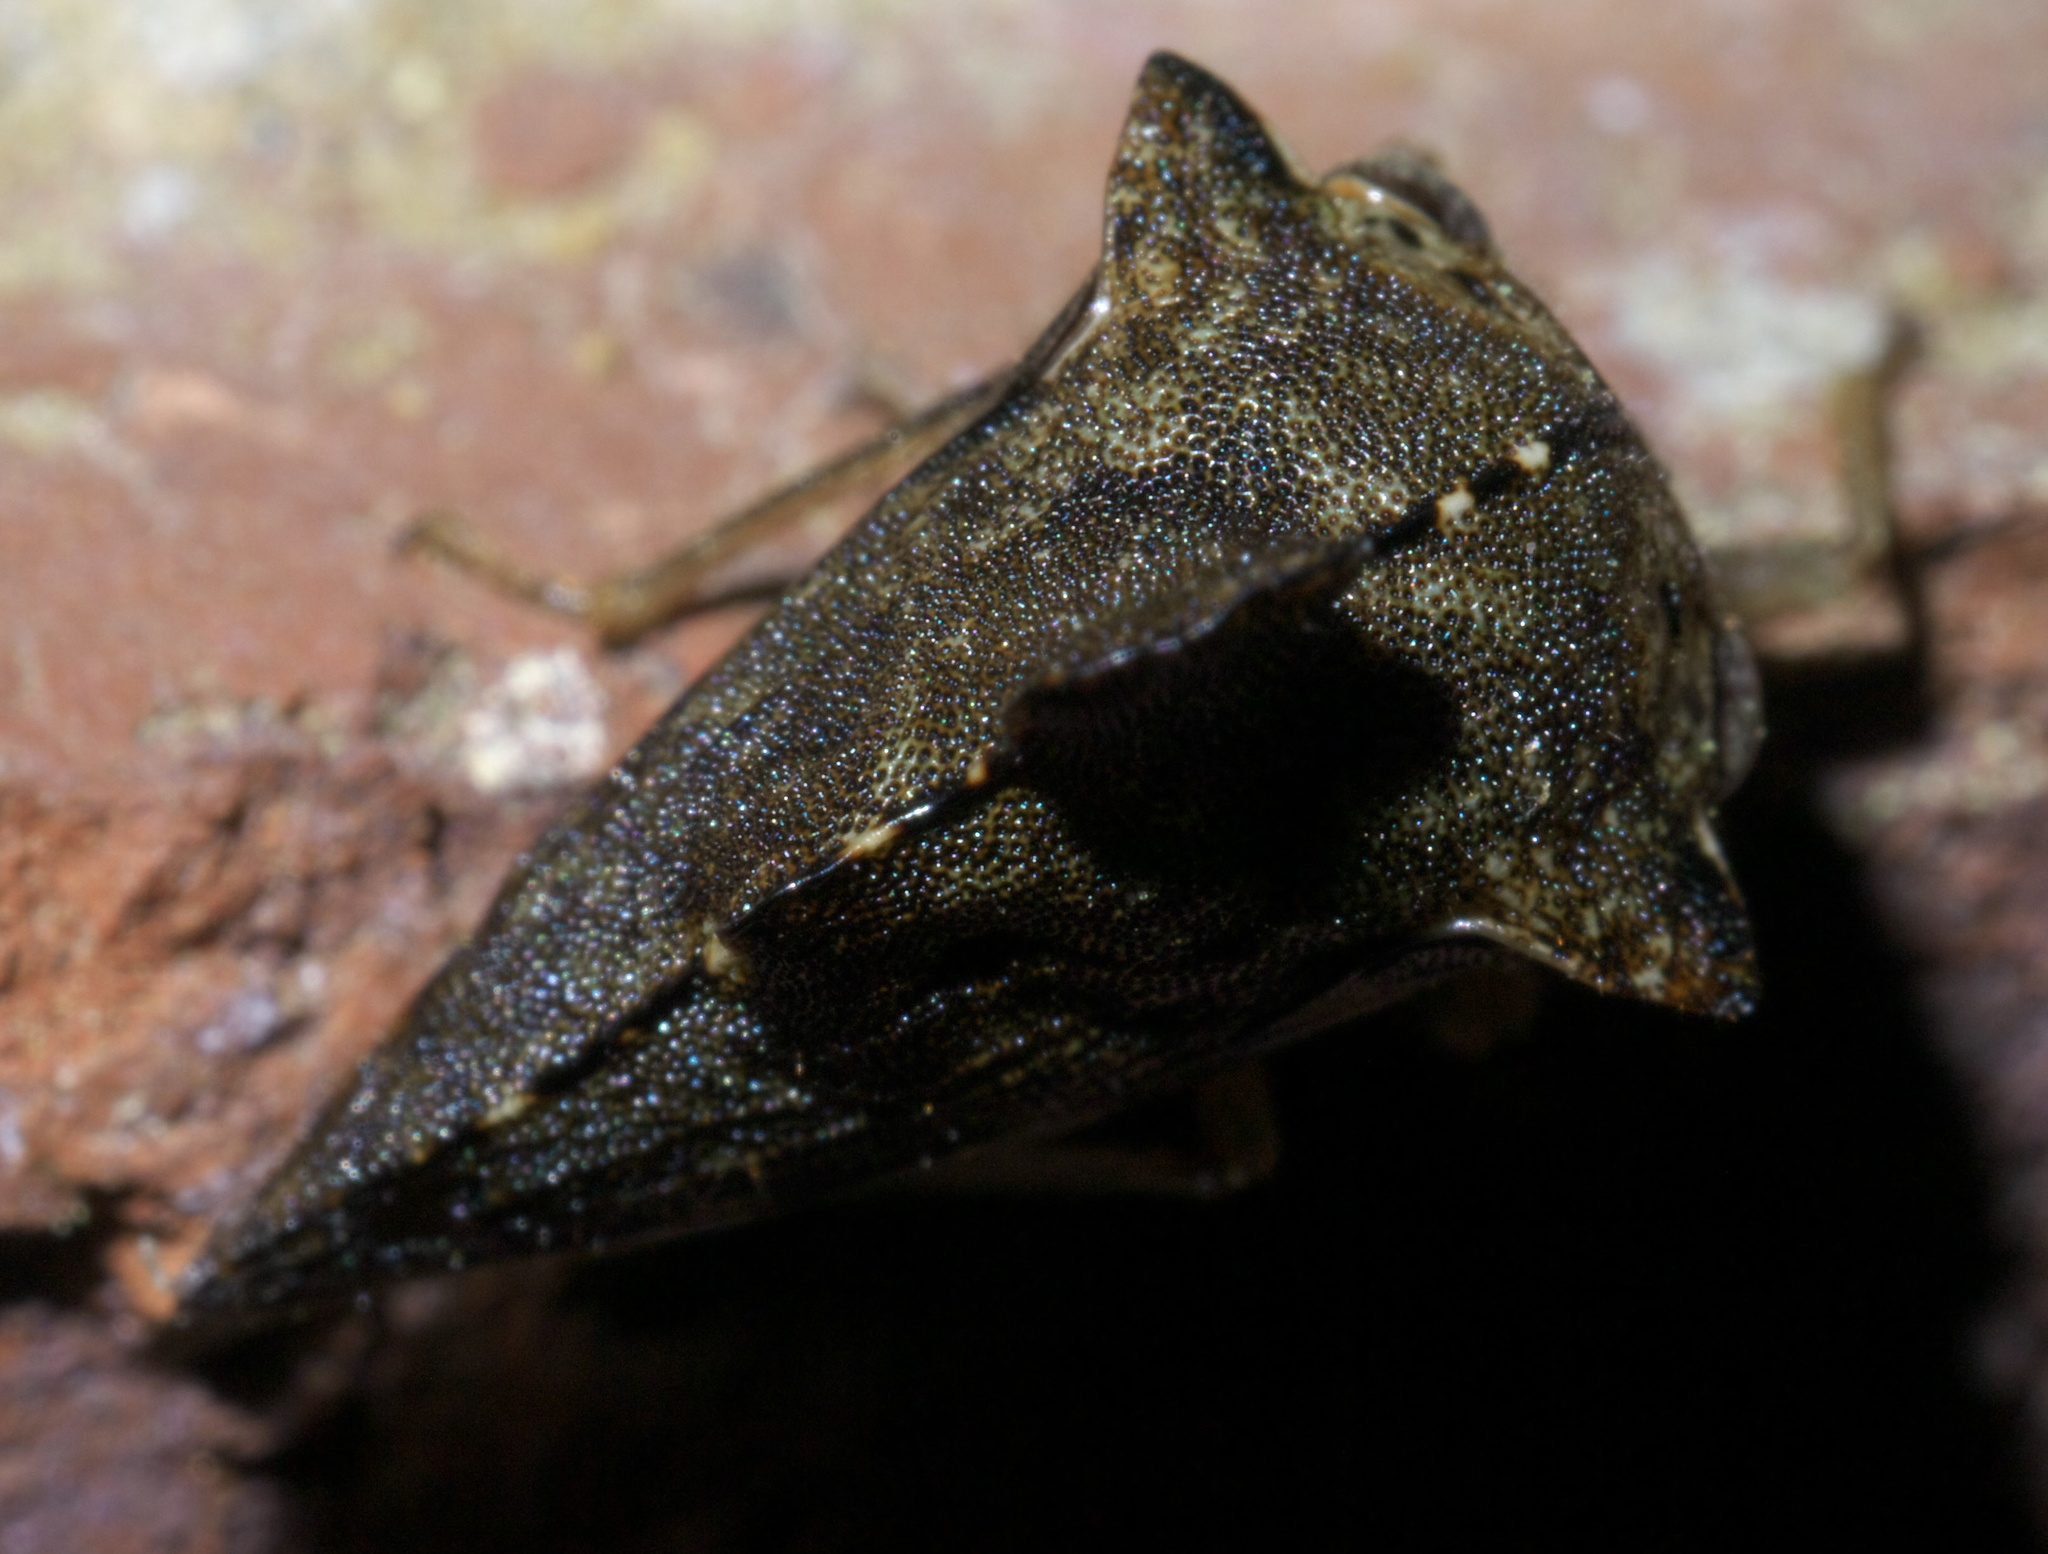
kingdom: Animalia
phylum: Arthropoda
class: Insecta
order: Hemiptera
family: Membracidae
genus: Heliria
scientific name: Heliria cristata
